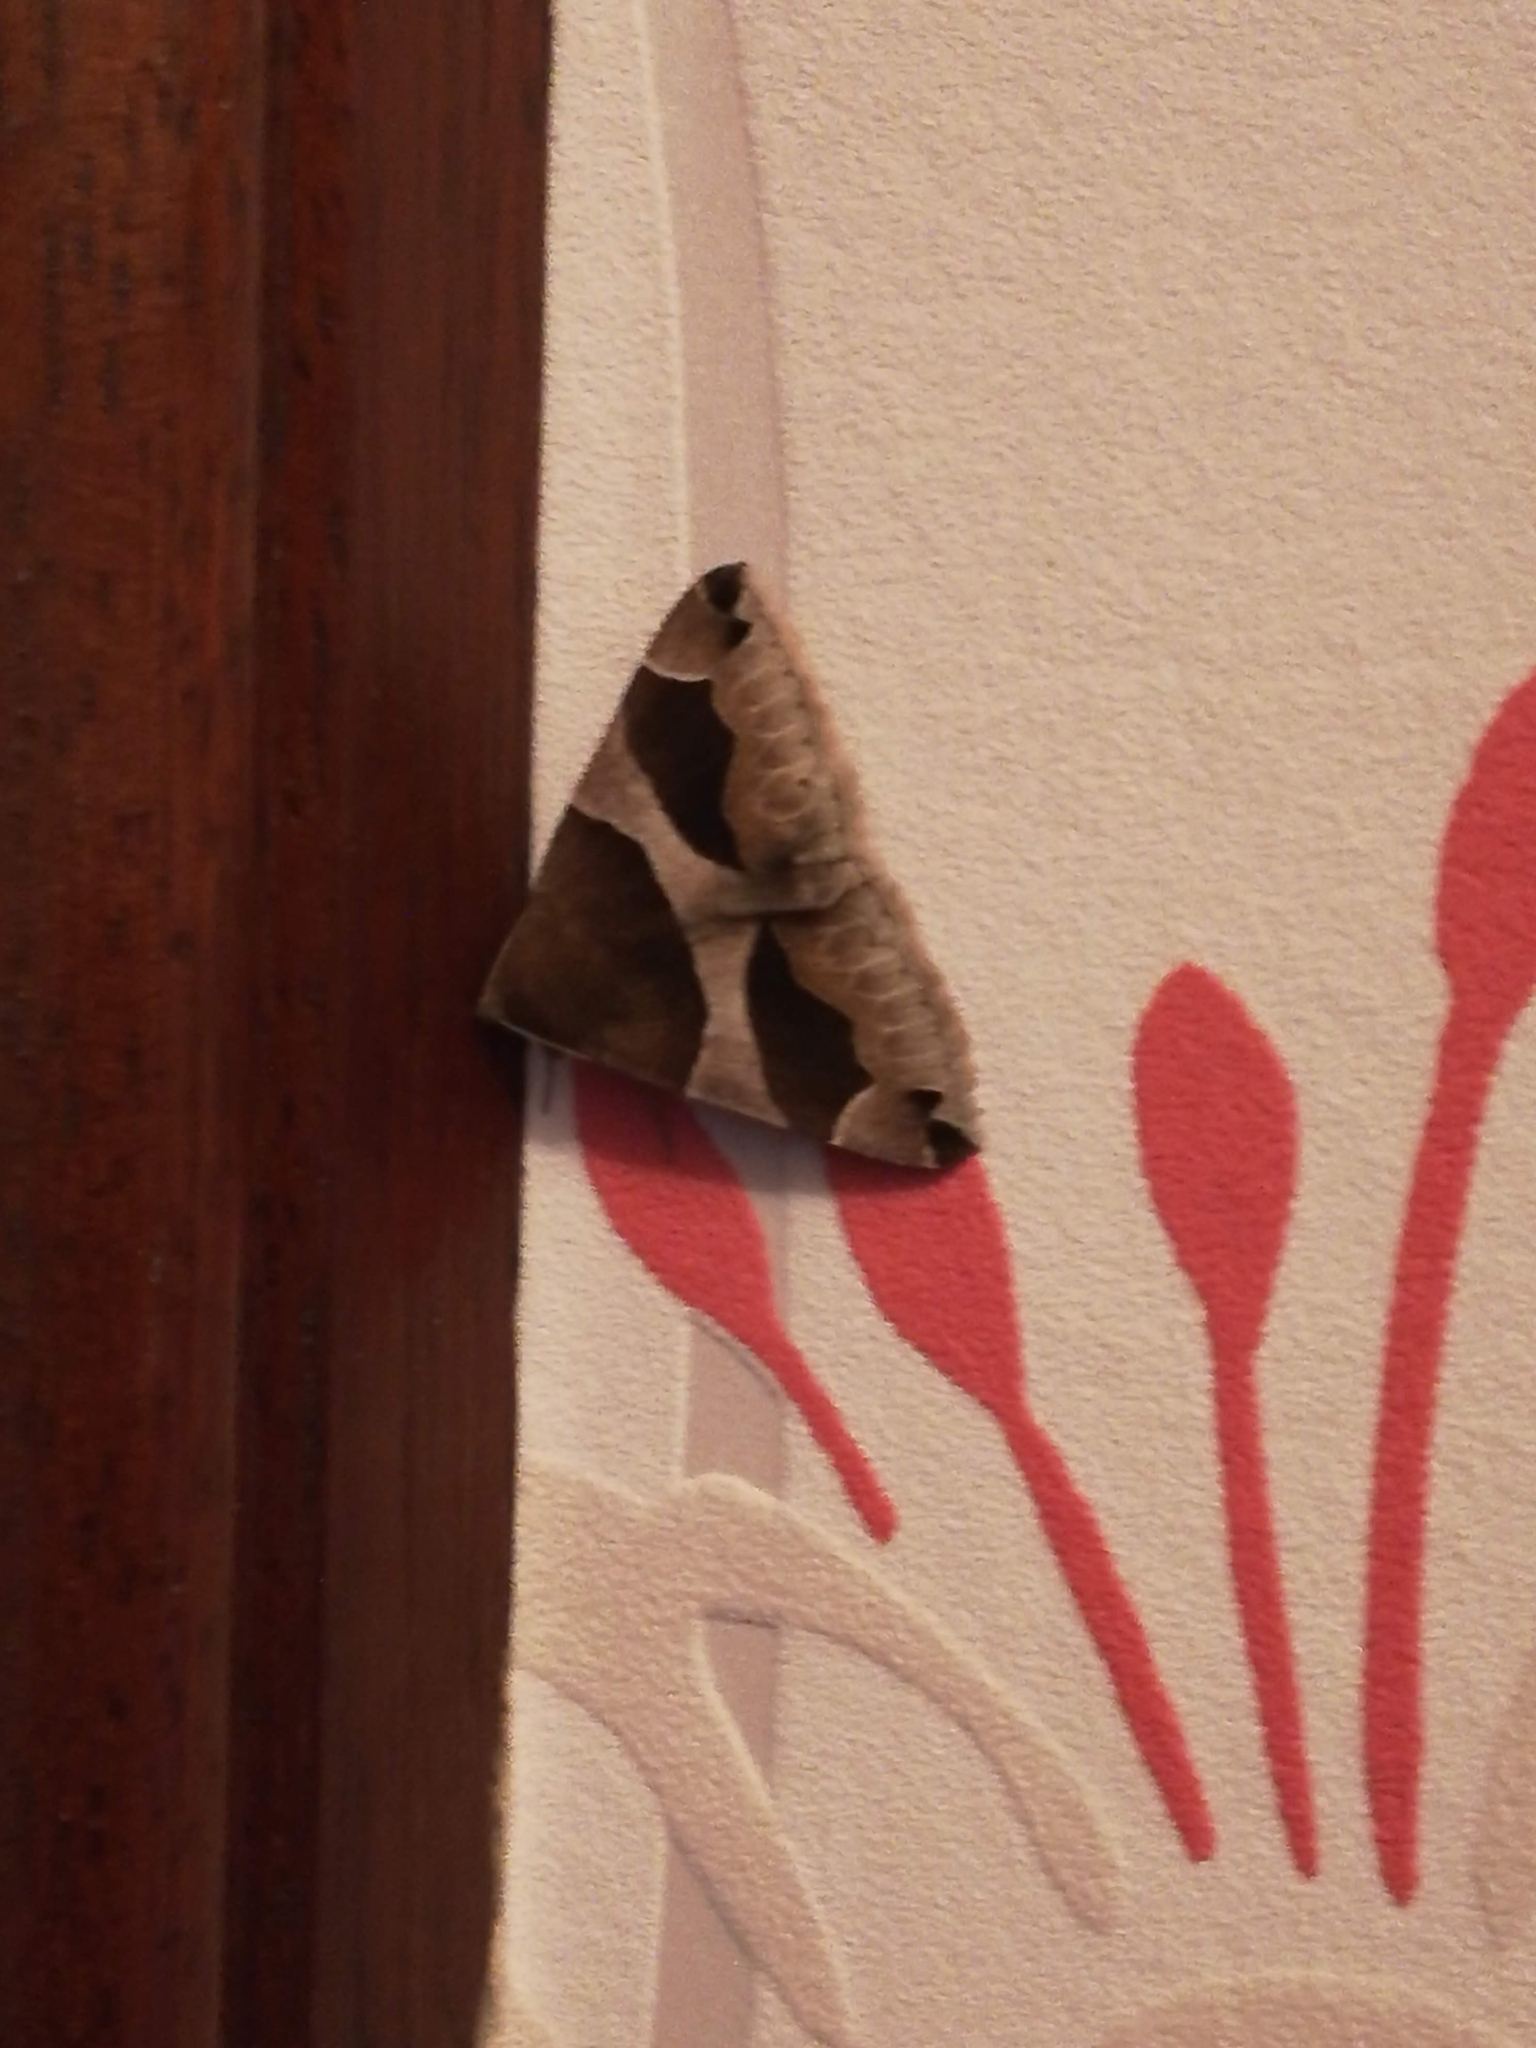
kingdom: Animalia
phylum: Arthropoda
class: Insecta
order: Lepidoptera
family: Erebidae
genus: Dysgonia
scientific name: Dysgonia algira
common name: Passenger
